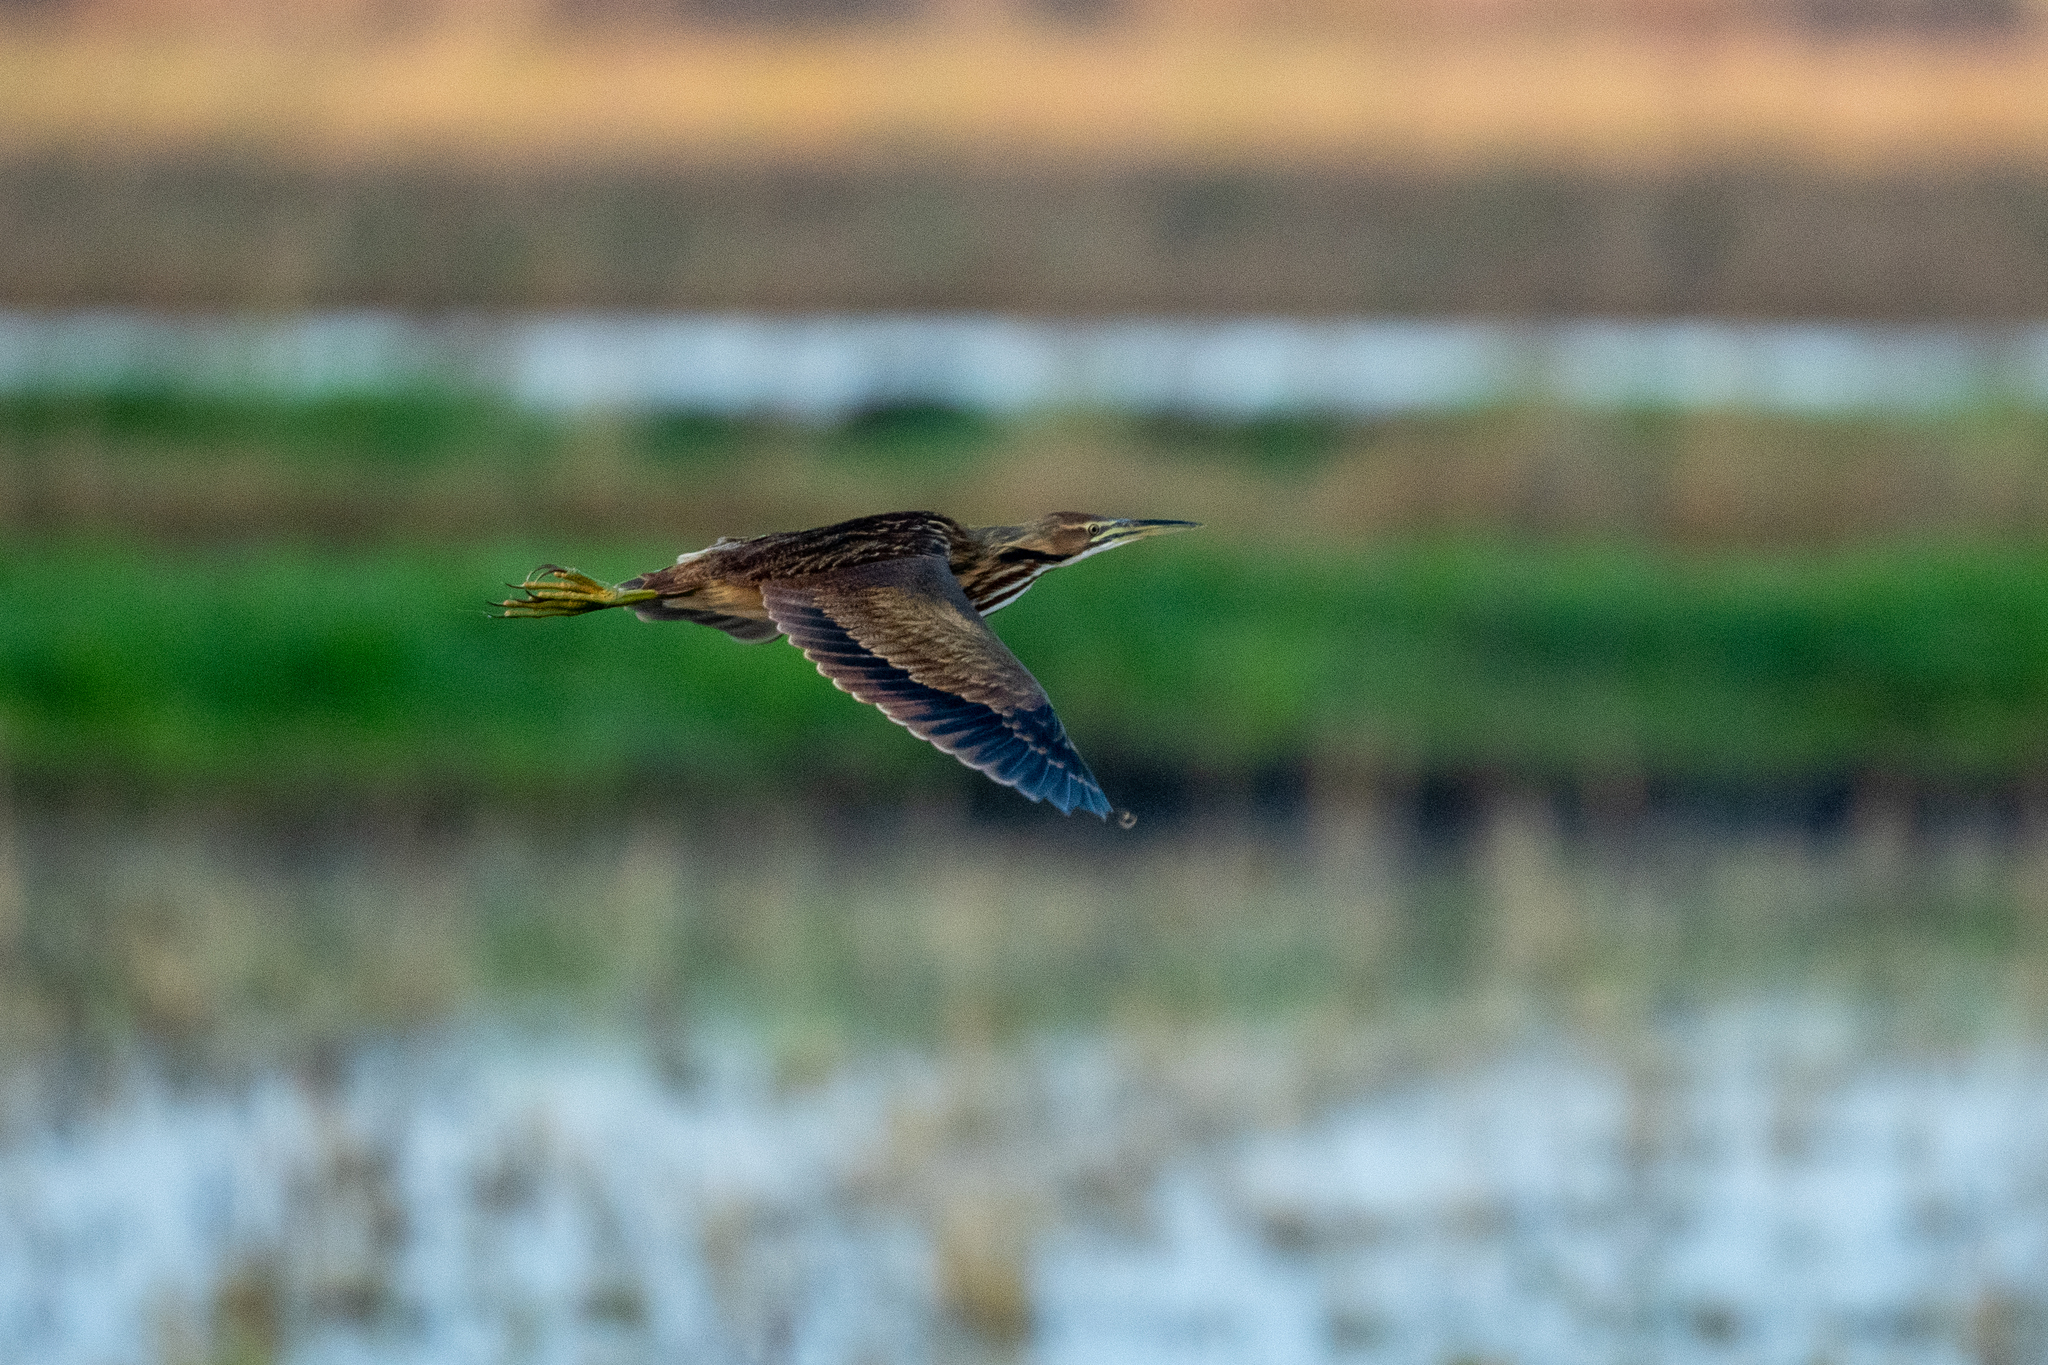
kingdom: Animalia
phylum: Chordata
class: Aves
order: Pelecaniformes
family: Ardeidae
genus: Botaurus
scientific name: Botaurus lentiginosus
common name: American bittern
